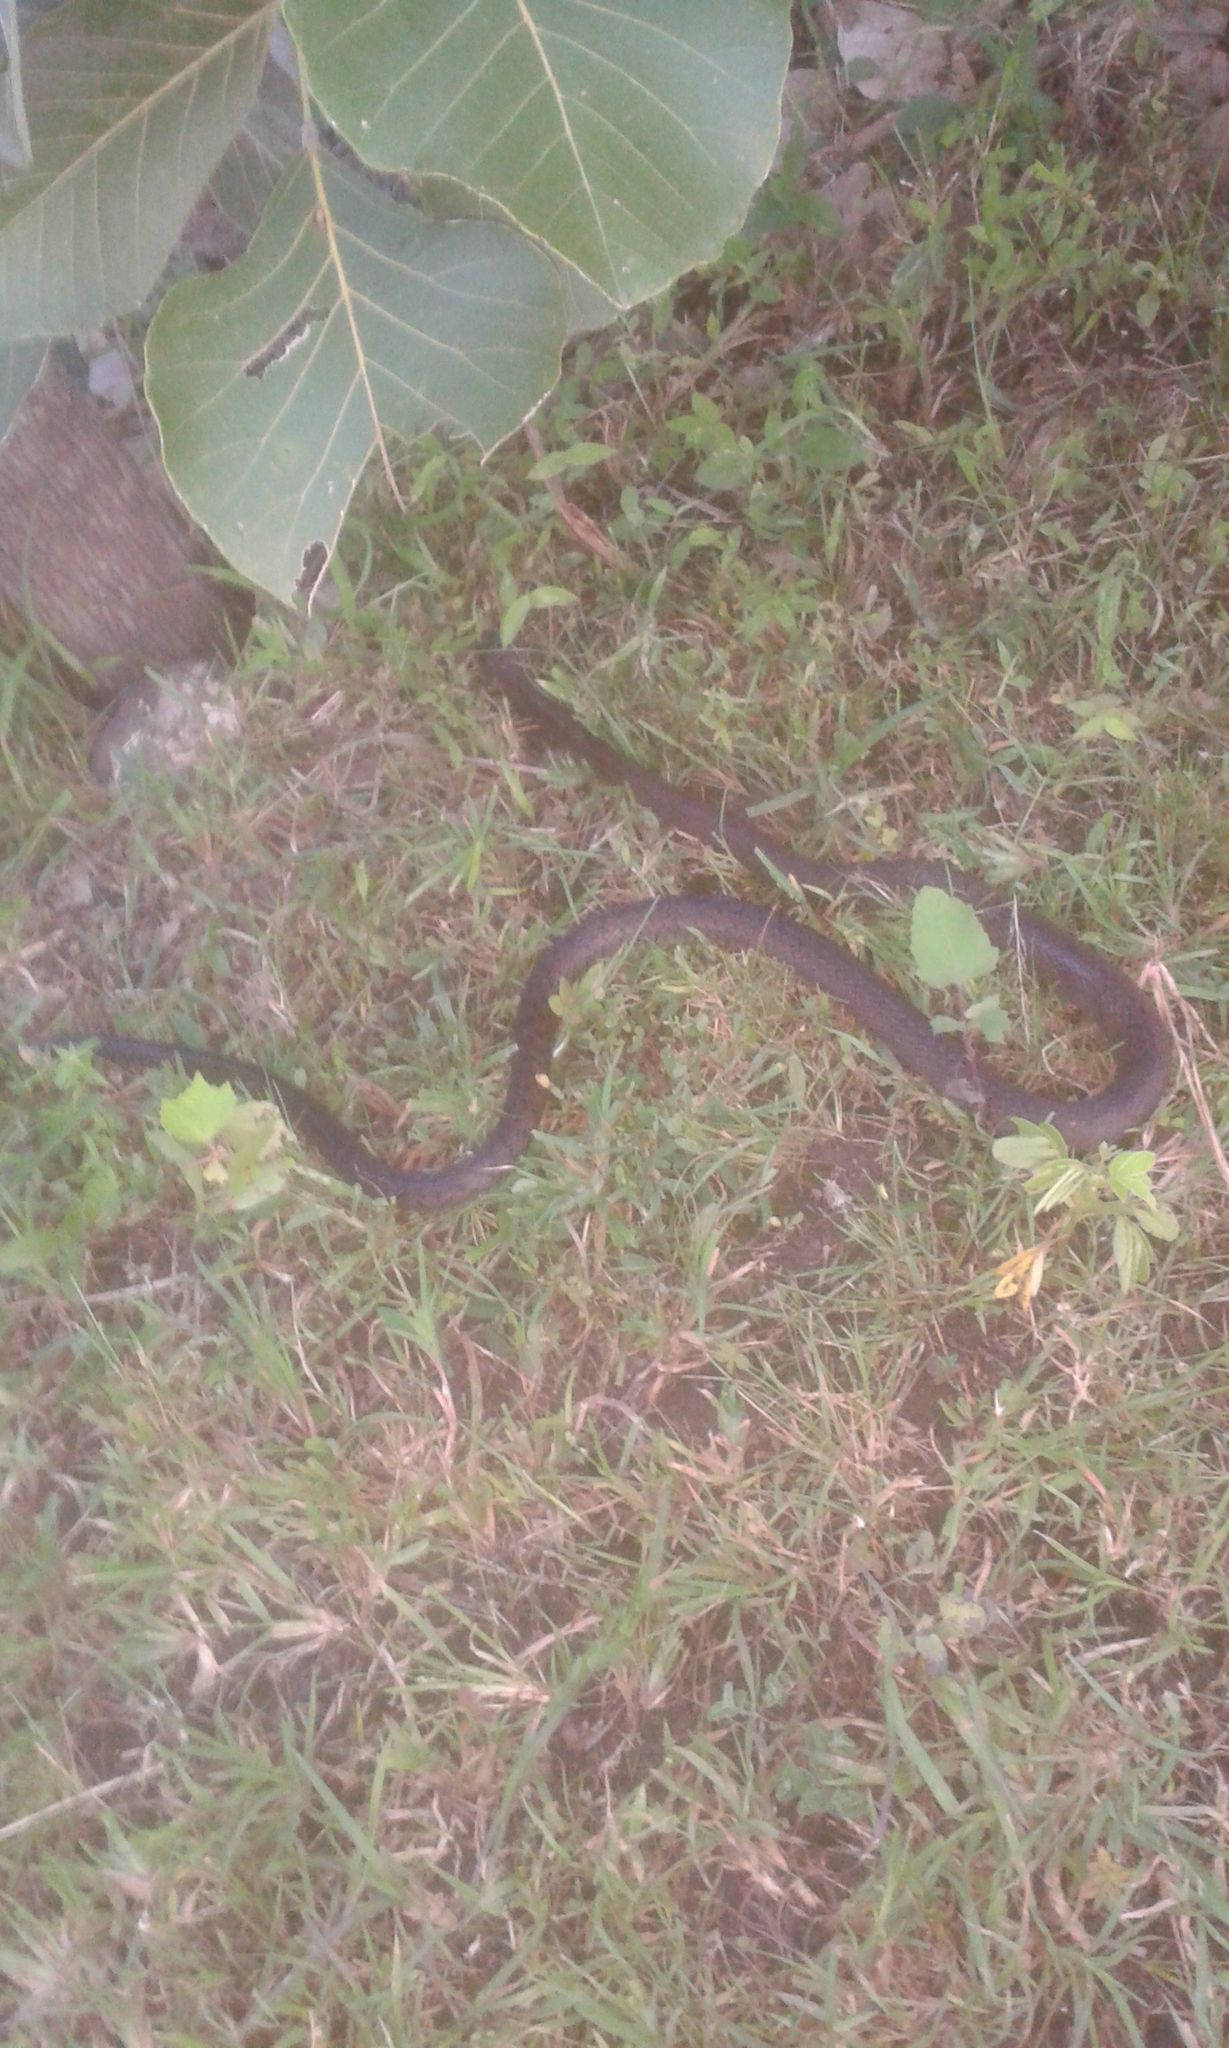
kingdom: Animalia
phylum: Chordata
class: Squamata
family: Colubridae
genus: Ptyas
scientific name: Ptyas mucosa
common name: Oriental ratsnake
